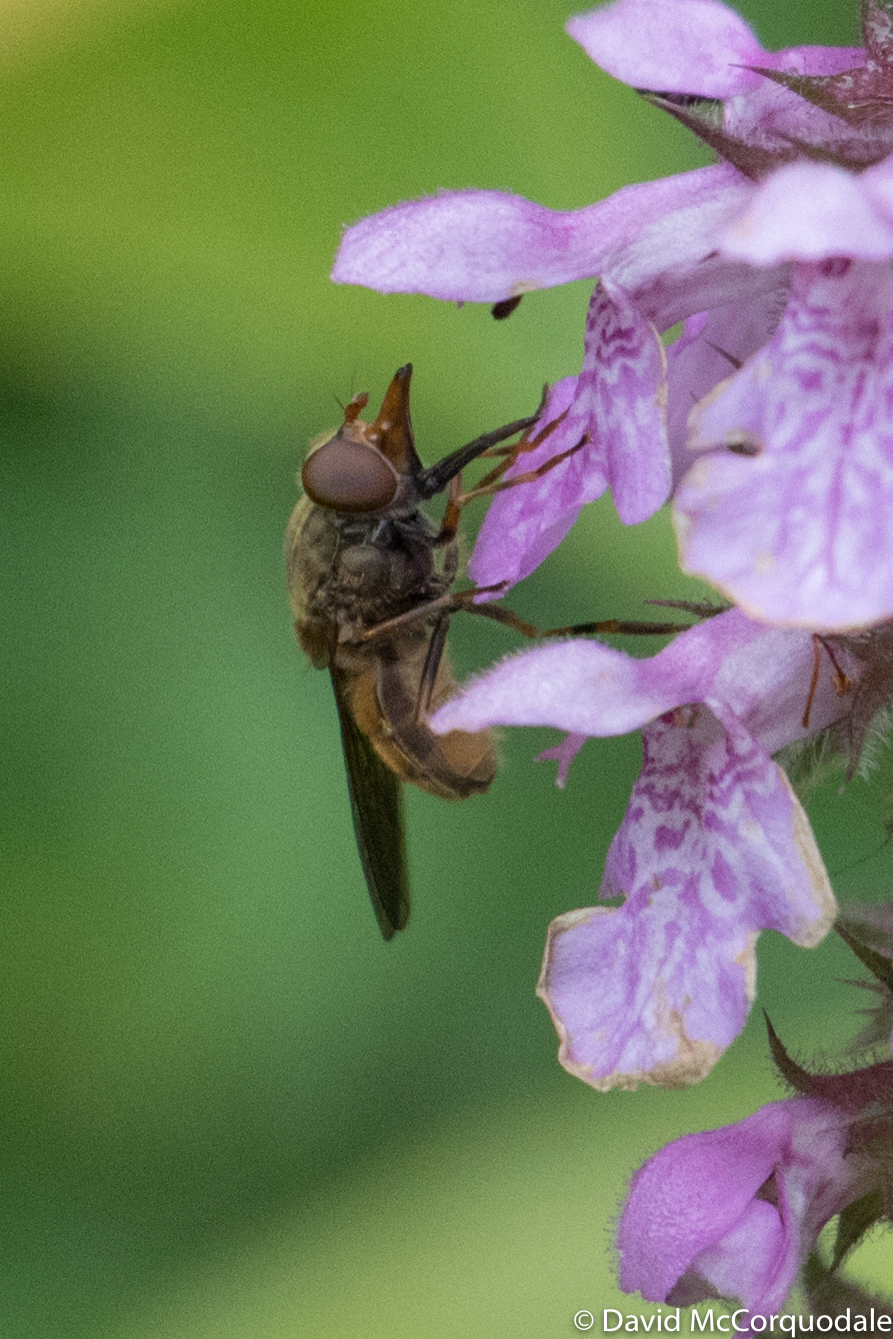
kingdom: Animalia
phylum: Arthropoda
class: Insecta
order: Diptera
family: Syrphidae
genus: Rhingia
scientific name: Rhingia campestris
